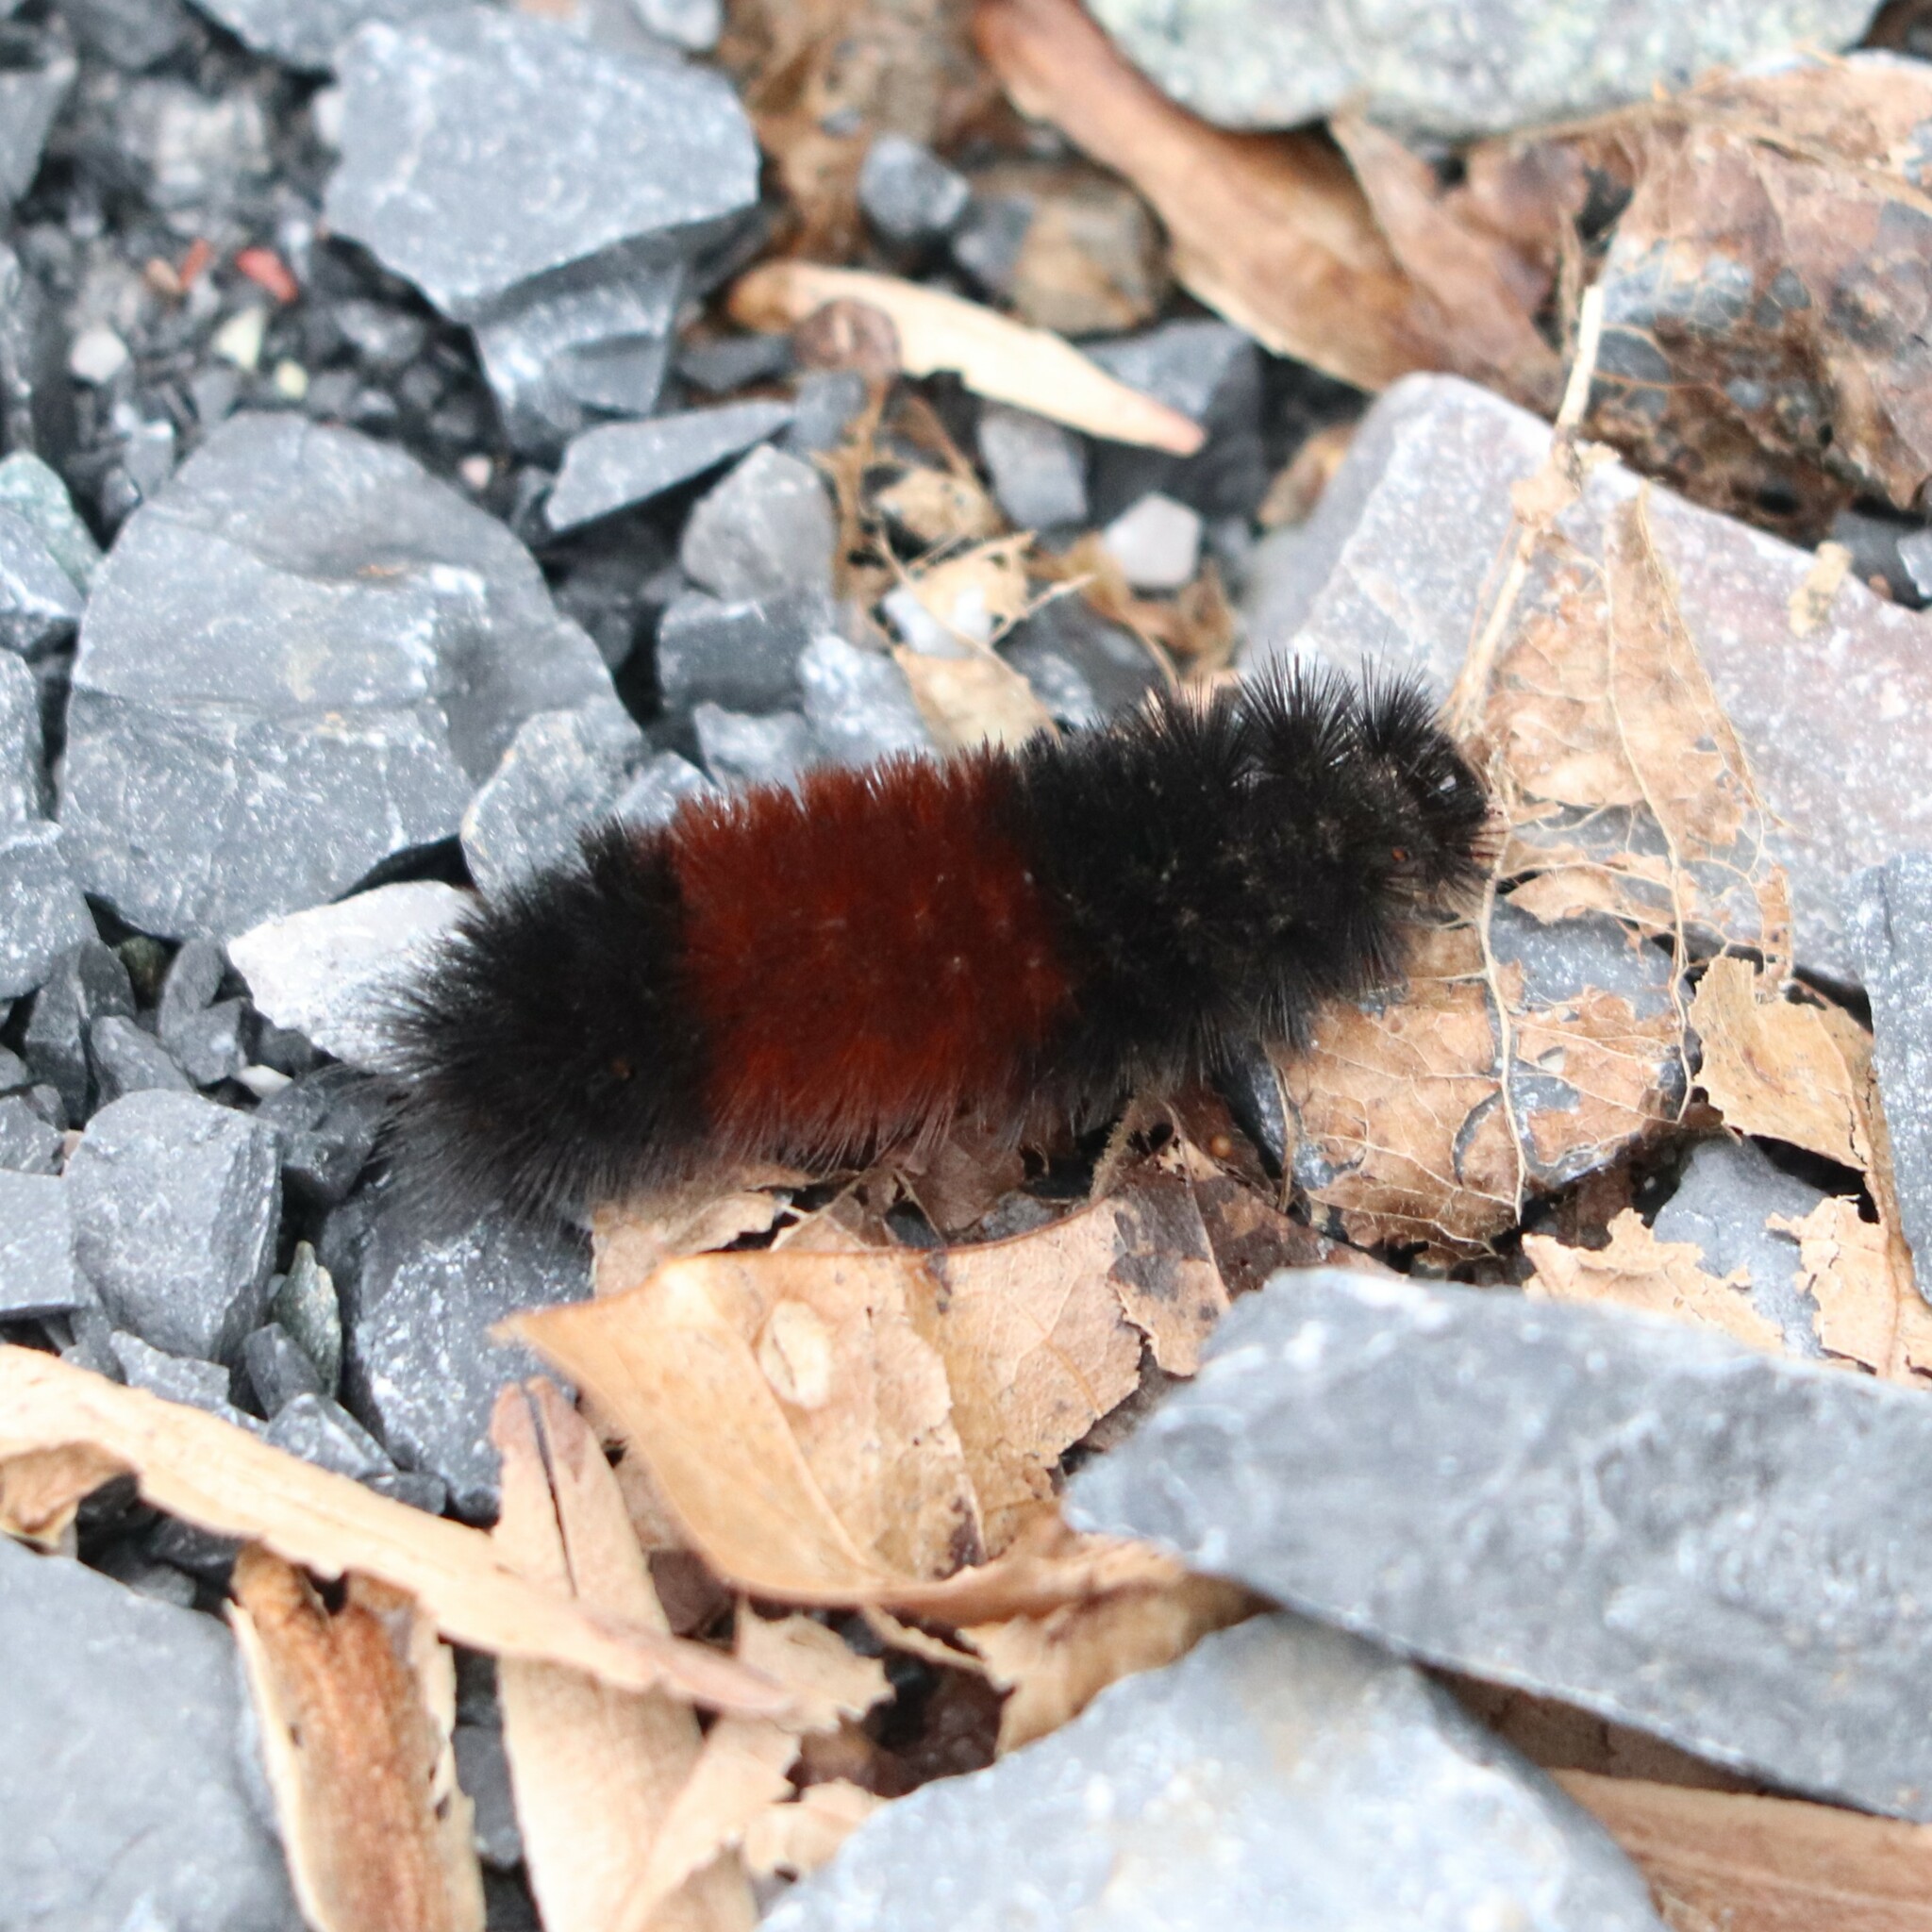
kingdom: Animalia
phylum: Arthropoda
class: Insecta
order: Lepidoptera
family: Erebidae
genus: Pyrrharctia
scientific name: Pyrrharctia isabella
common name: Isabella tiger moth
